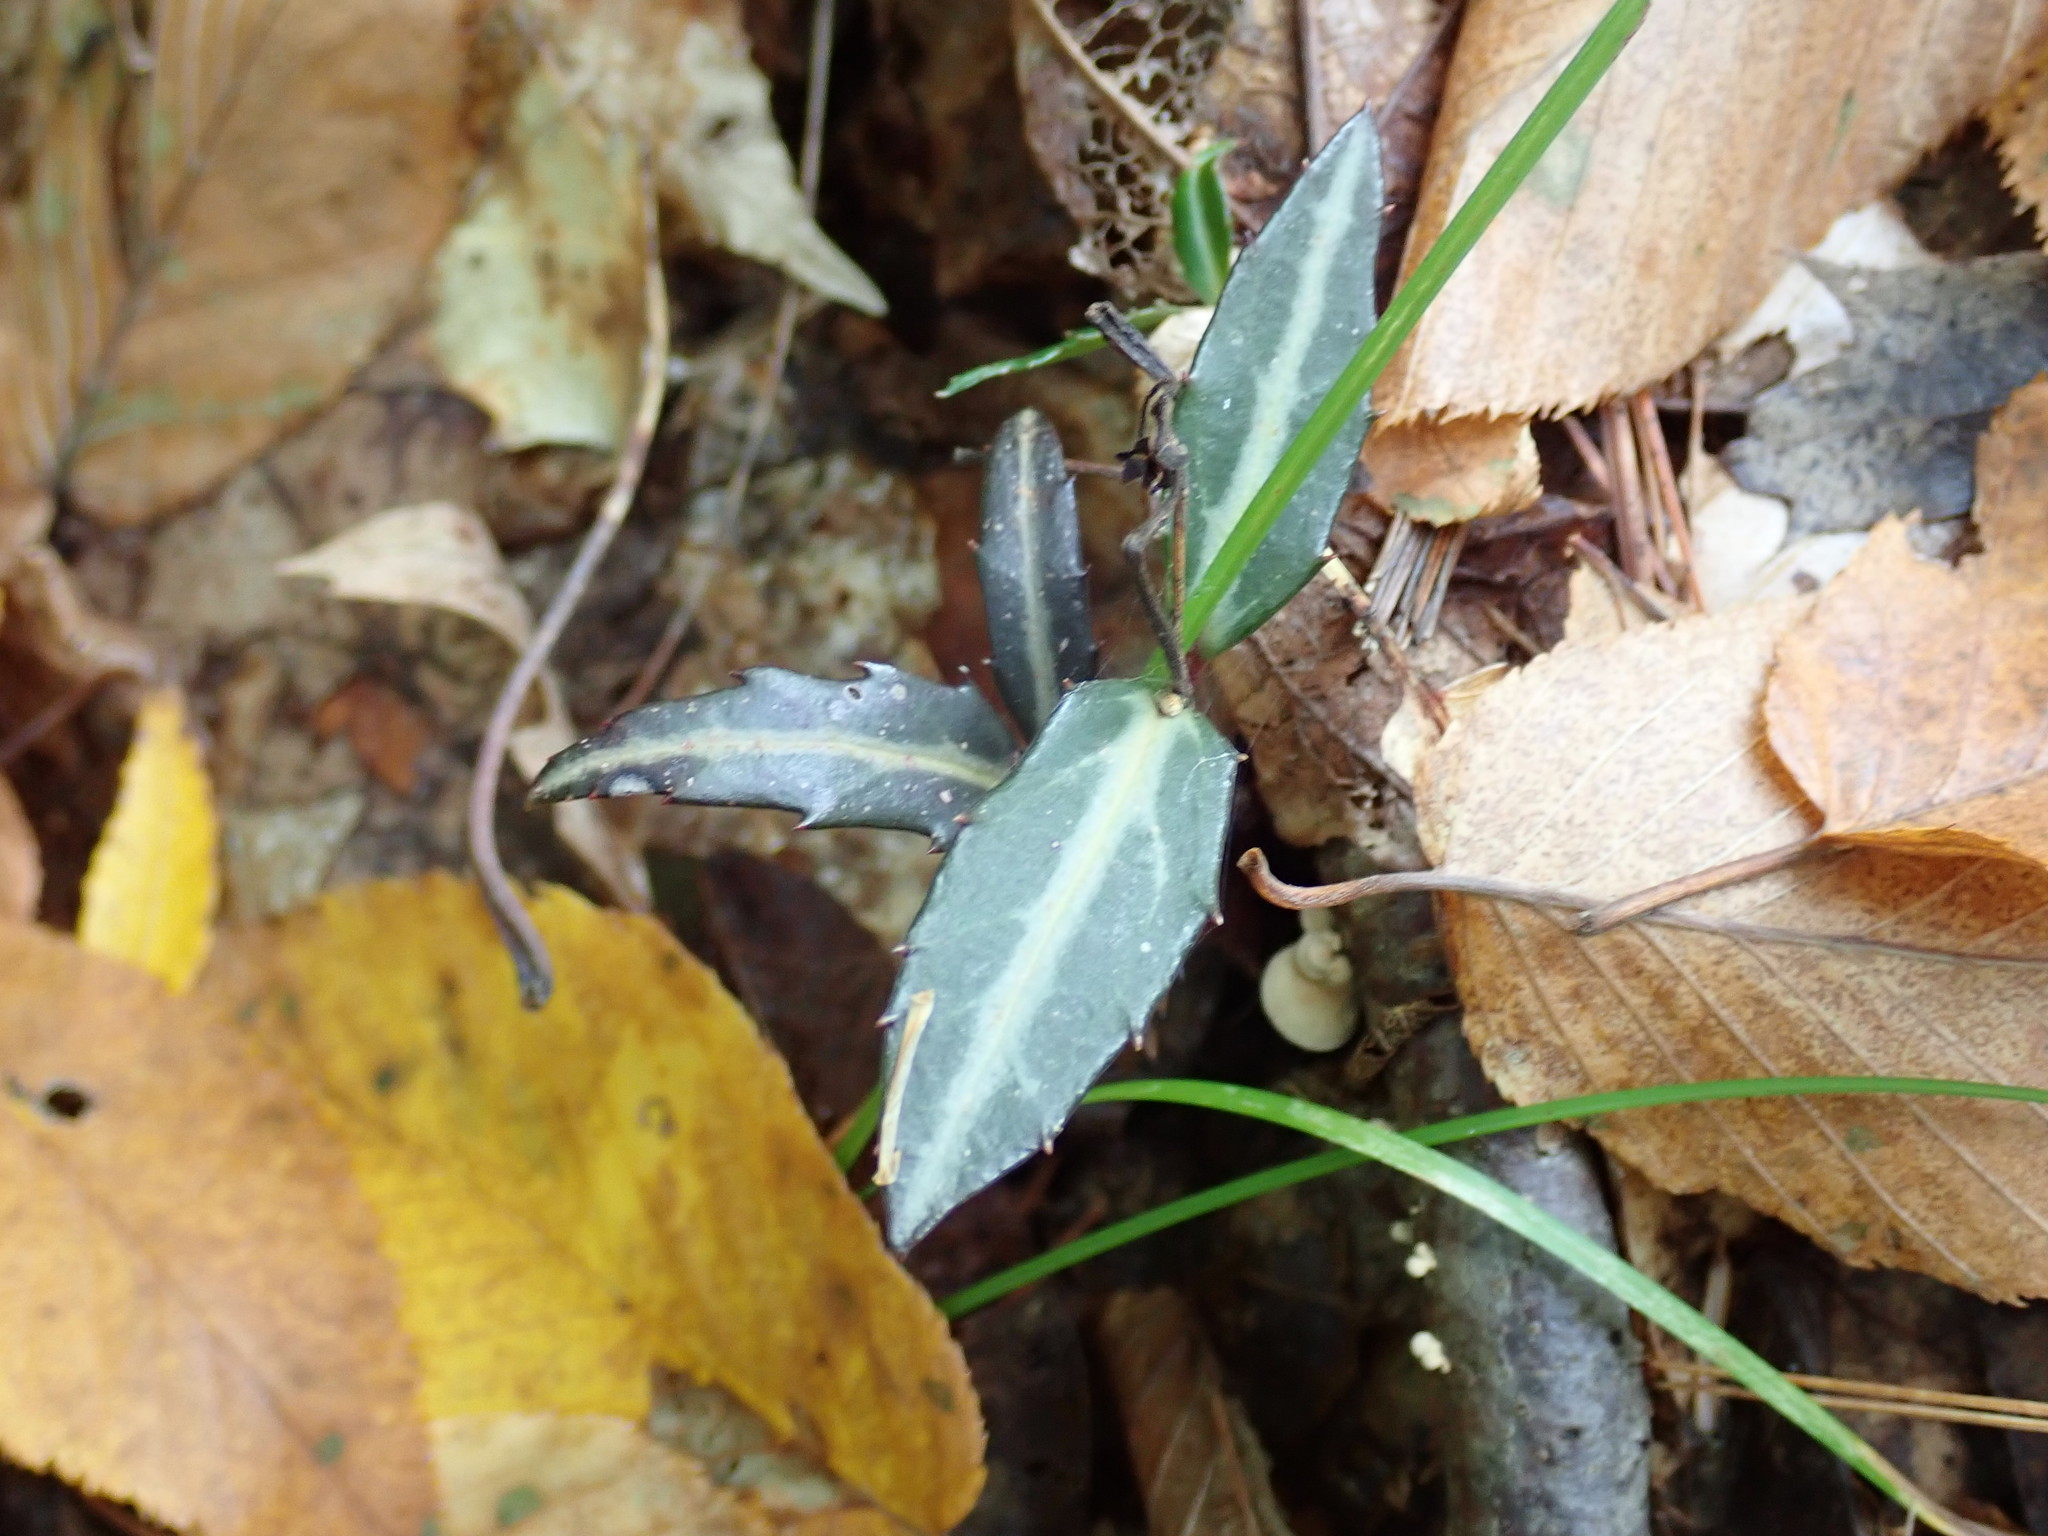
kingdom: Plantae
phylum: Tracheophyta
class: Magnoliopsida
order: Ericales
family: Ericaceae
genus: Chimaphila
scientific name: Chimaphila maculata
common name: Spotted pipsissewa
